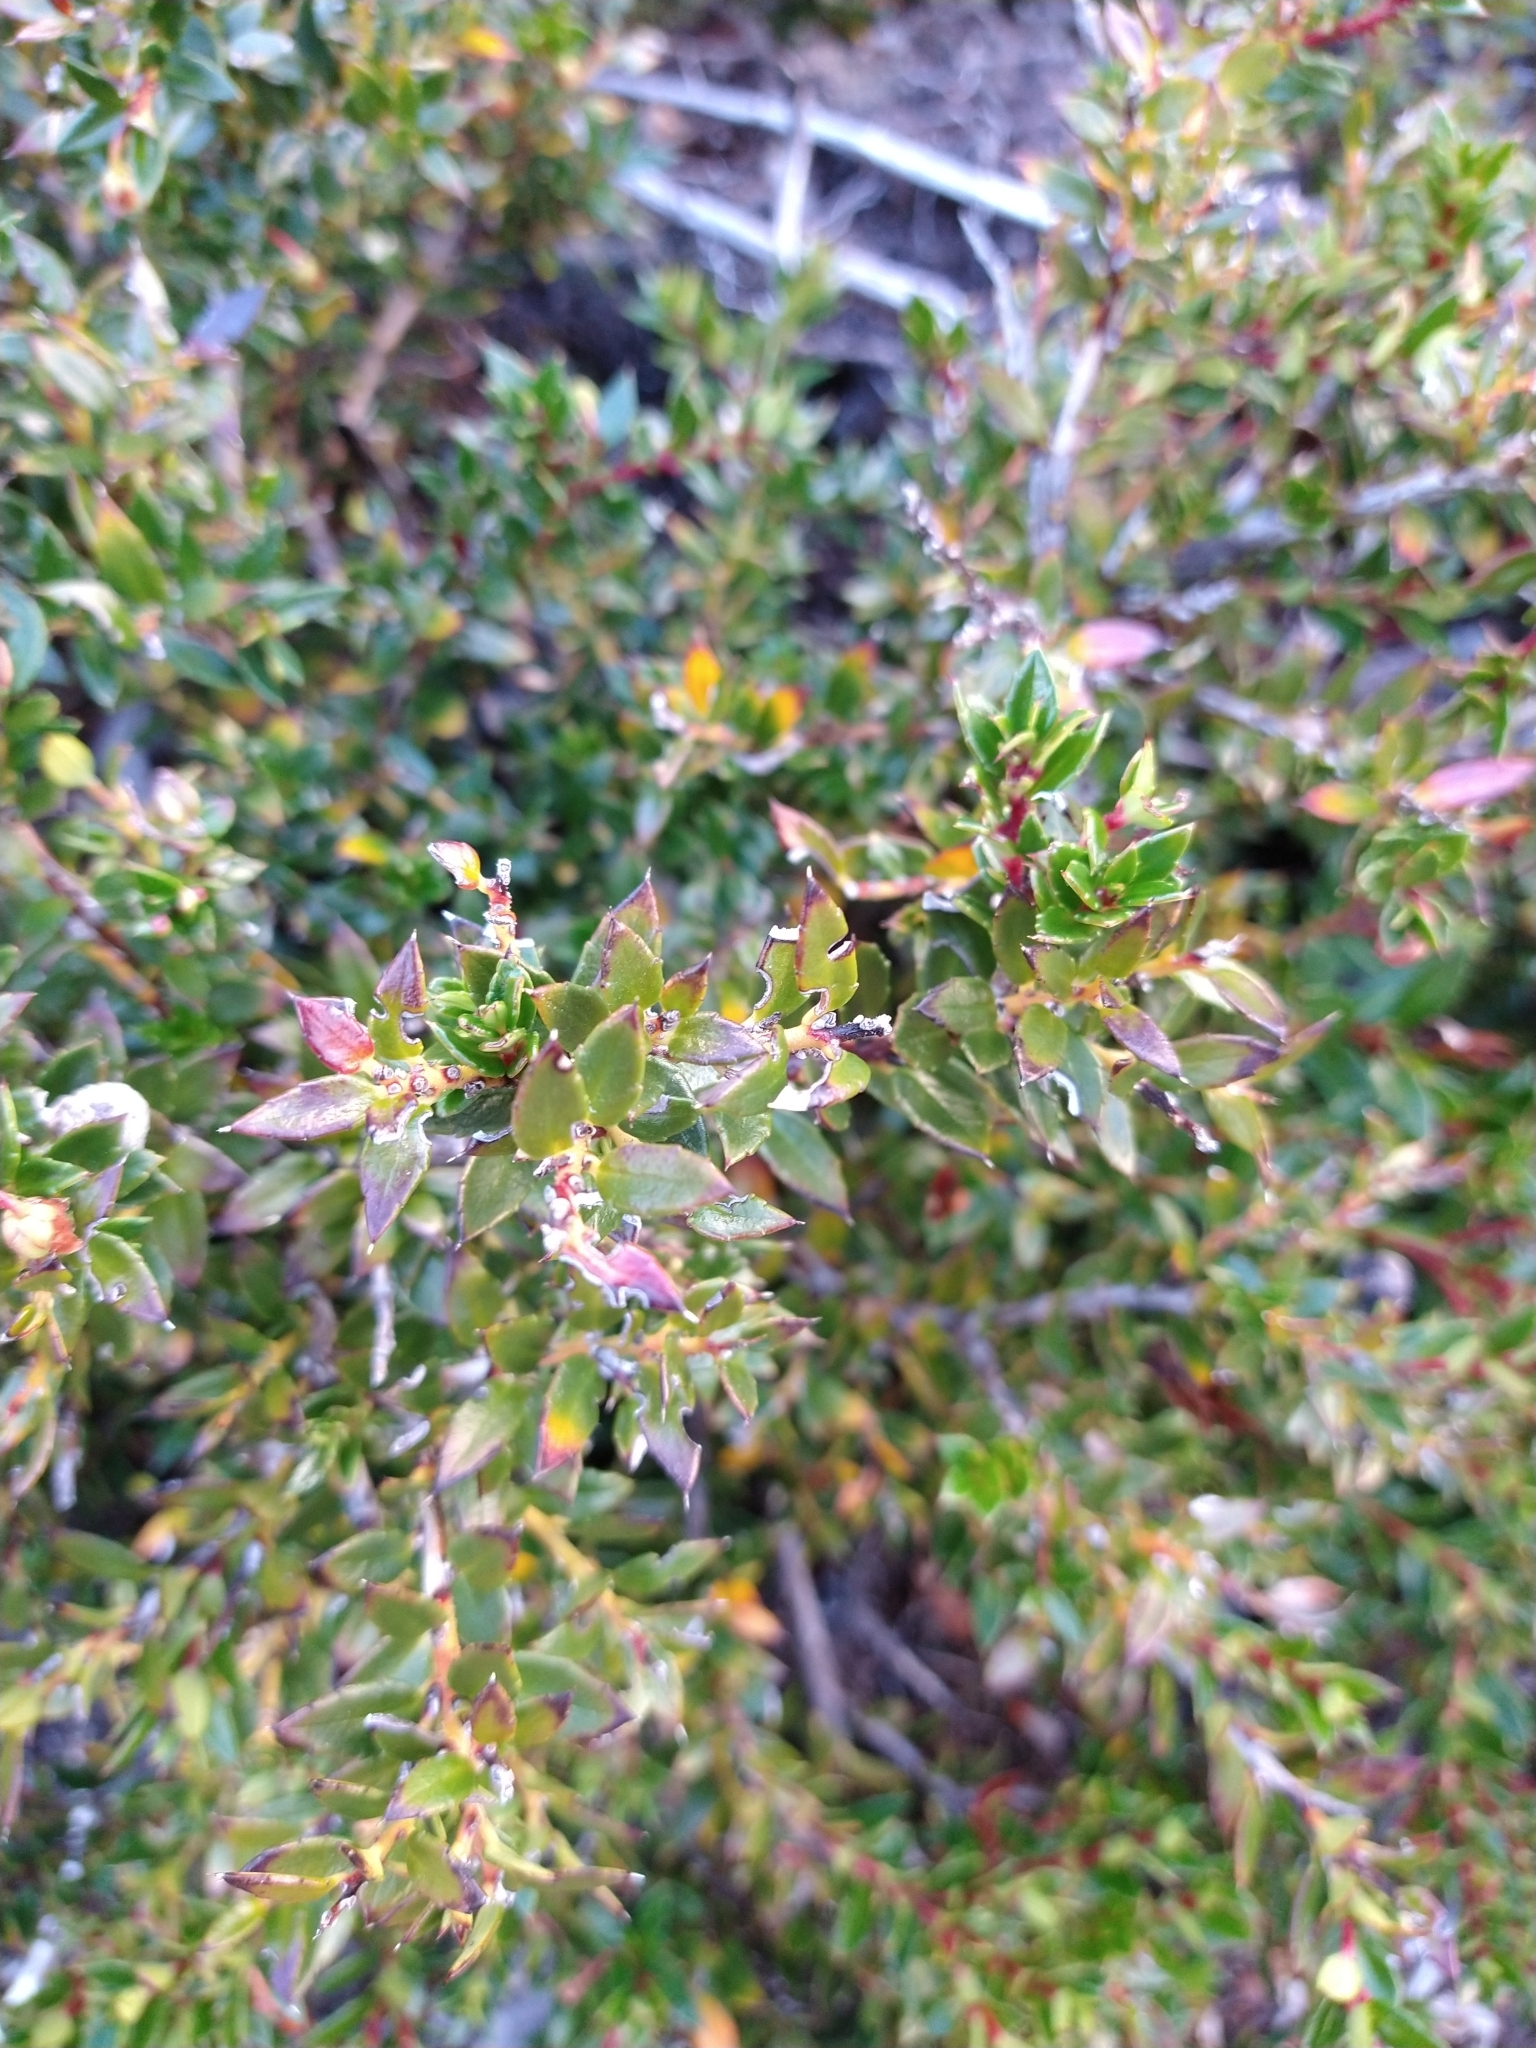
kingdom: Plantae
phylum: Tracheophyta
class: Magnoliopsida
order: Ericales
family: Ericaceae
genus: Gaultheria
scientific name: Gaultheria mucronata
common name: Prickly heath
